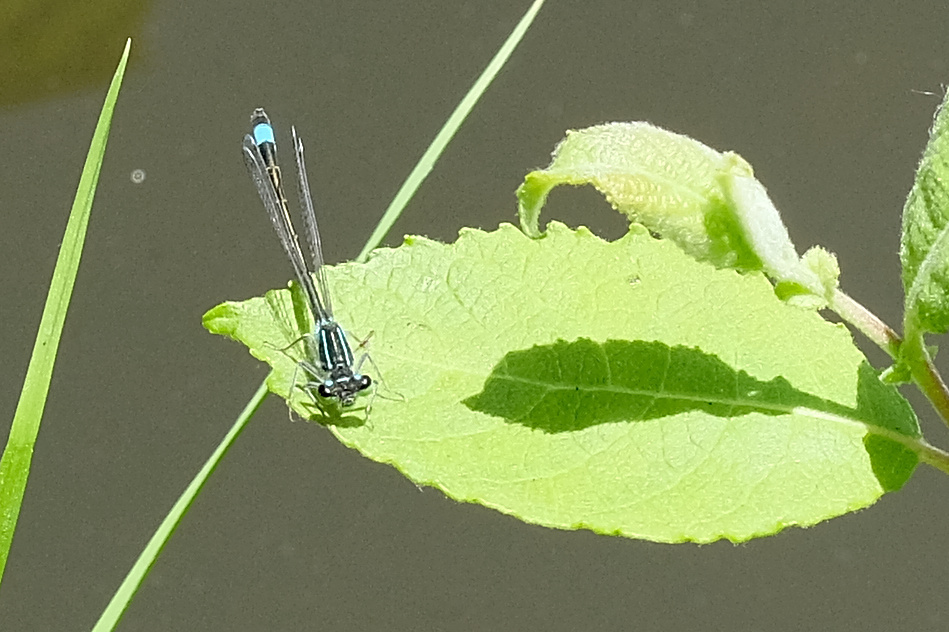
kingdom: Animalia
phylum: Arthropoda
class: Insecta
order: Odonata
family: Coenagrionidae
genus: Ischnura
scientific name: Ischnura elegans
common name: Blue-tailed damselfly
